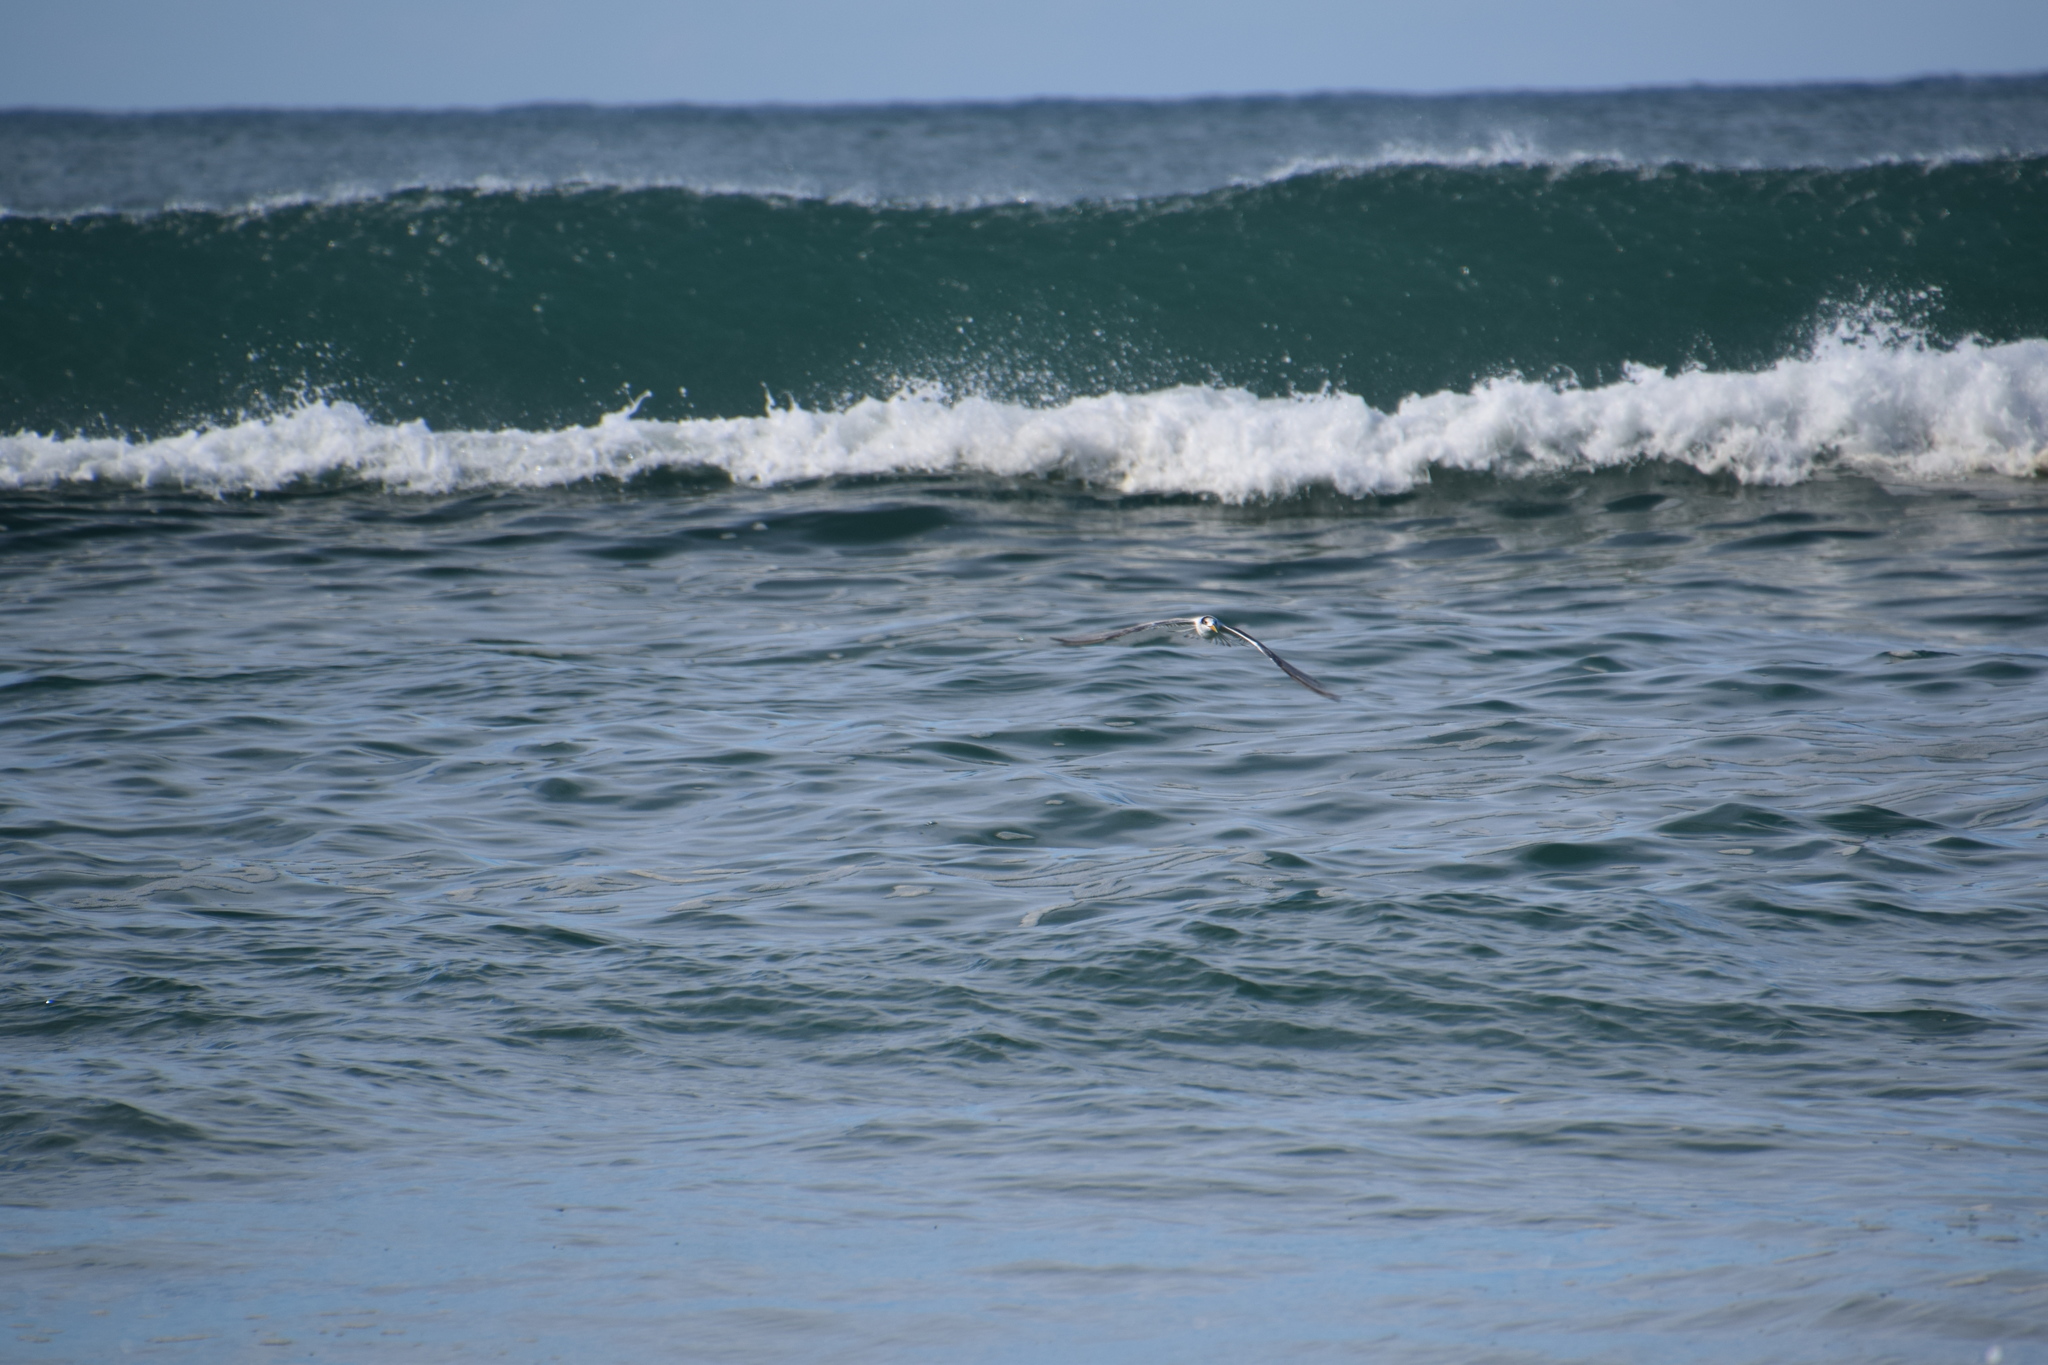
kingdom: Animalia
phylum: Chordata
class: Aves
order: Charadriiformes
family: Laridae
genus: Thalasseus
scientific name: Thalasseus bergii
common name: Greater crested tern
